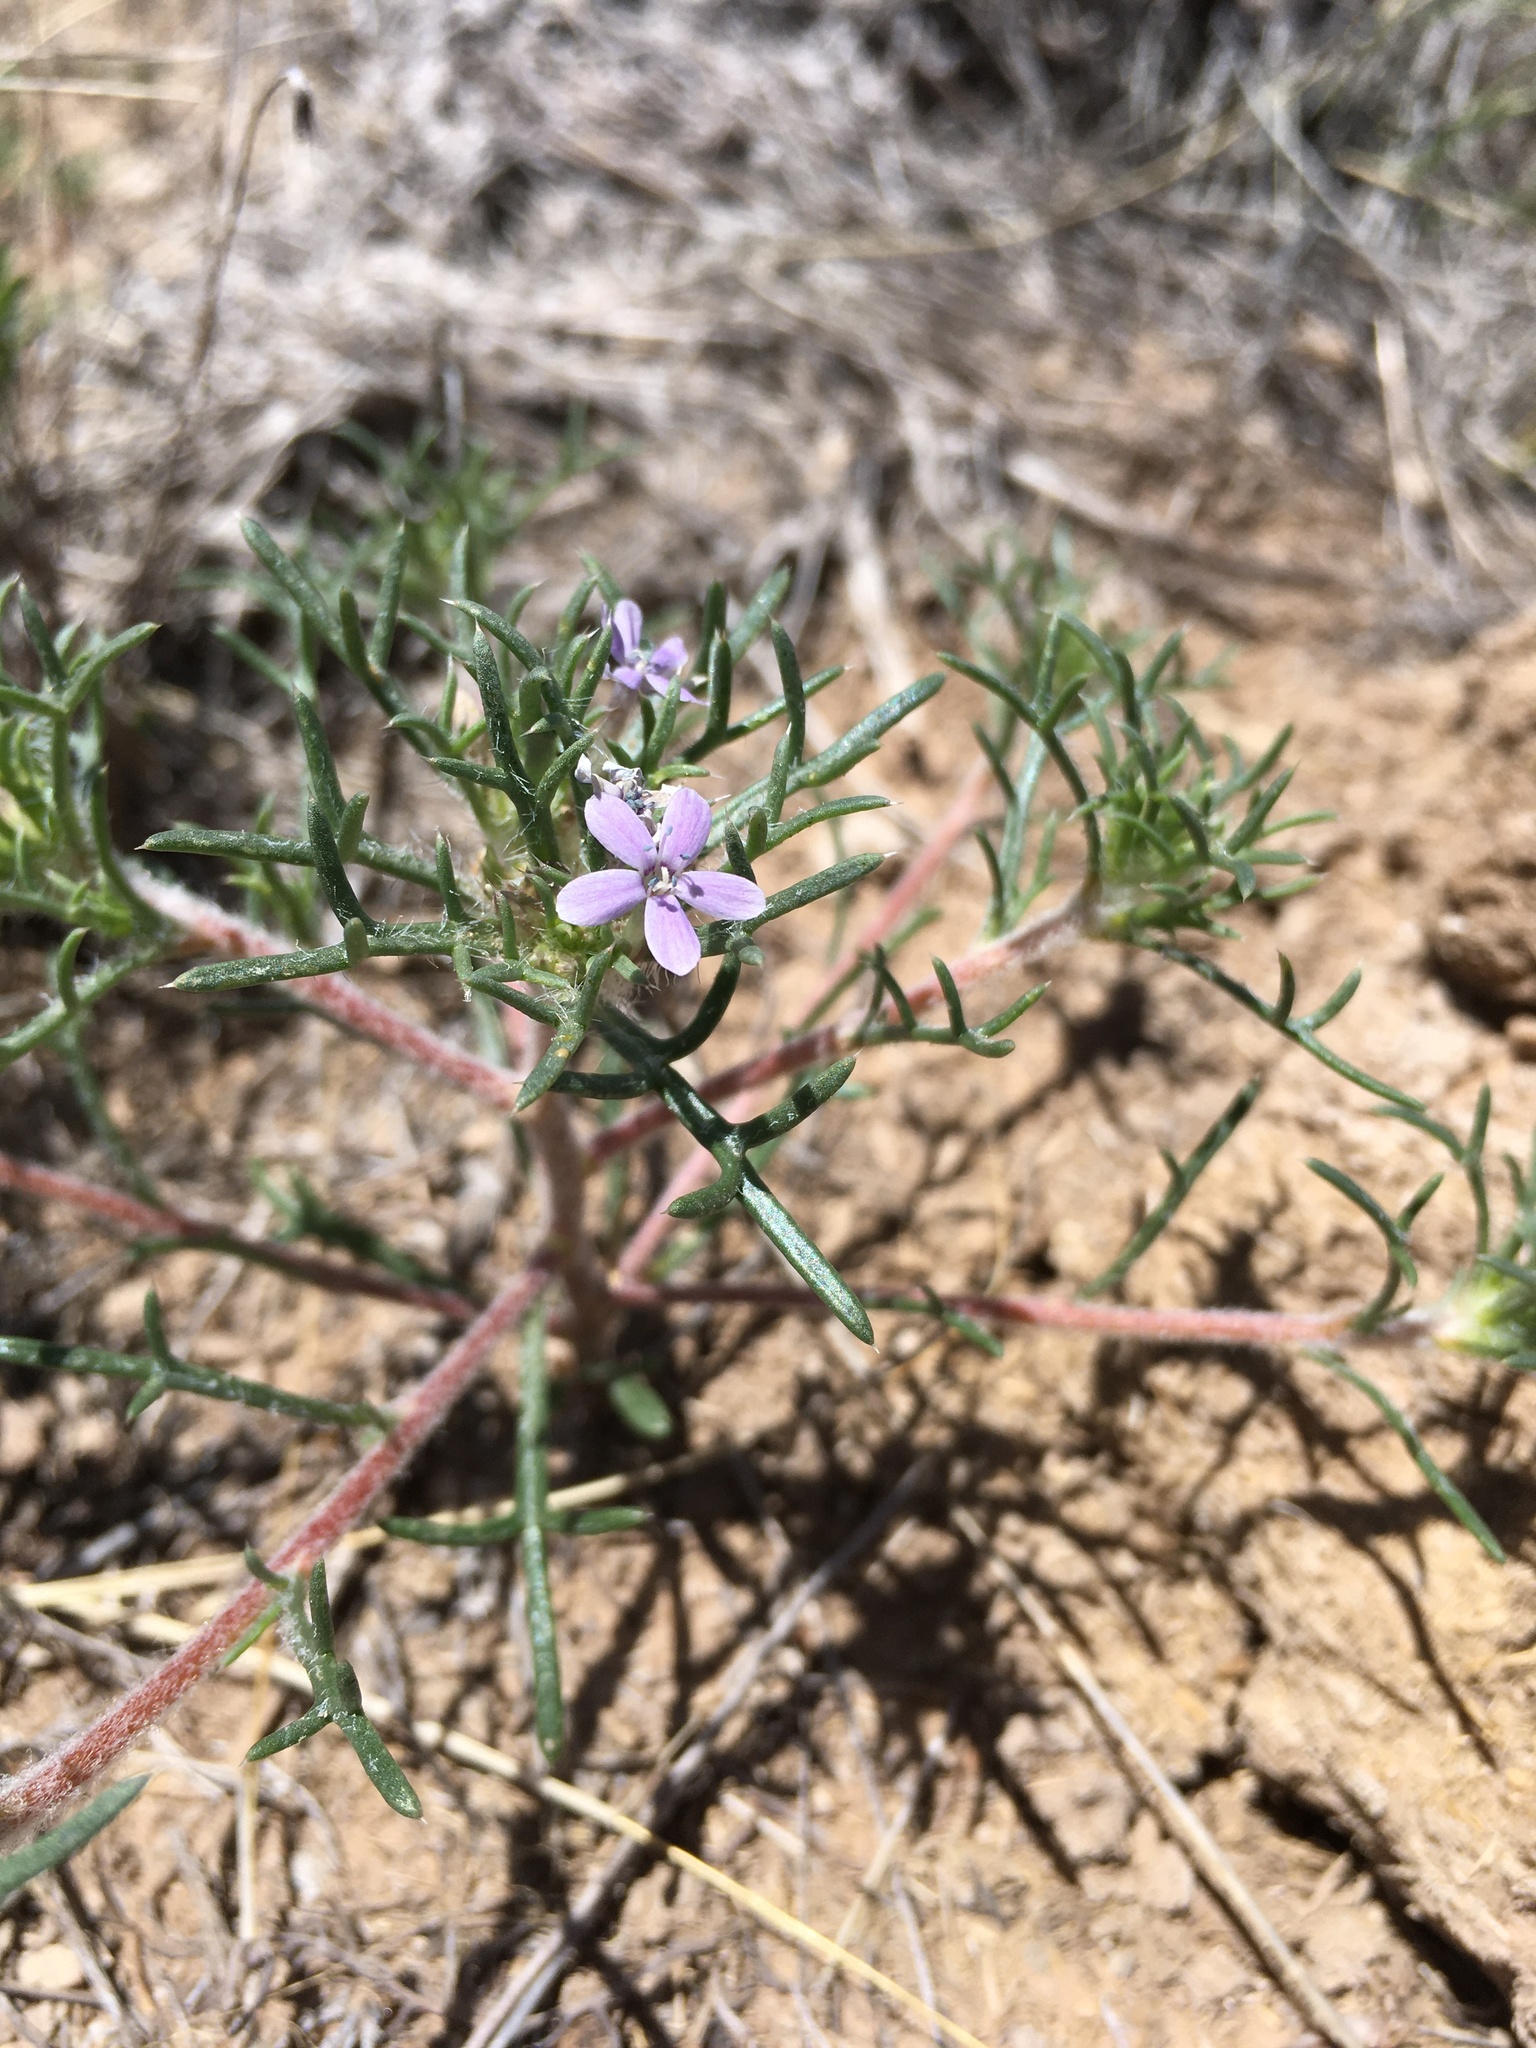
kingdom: Plantae
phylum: Tracheophyta
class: Magnoliopsida
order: Ericales
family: Polemoniaceae
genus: Ipomopsis
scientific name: Ipomopsis pumila
